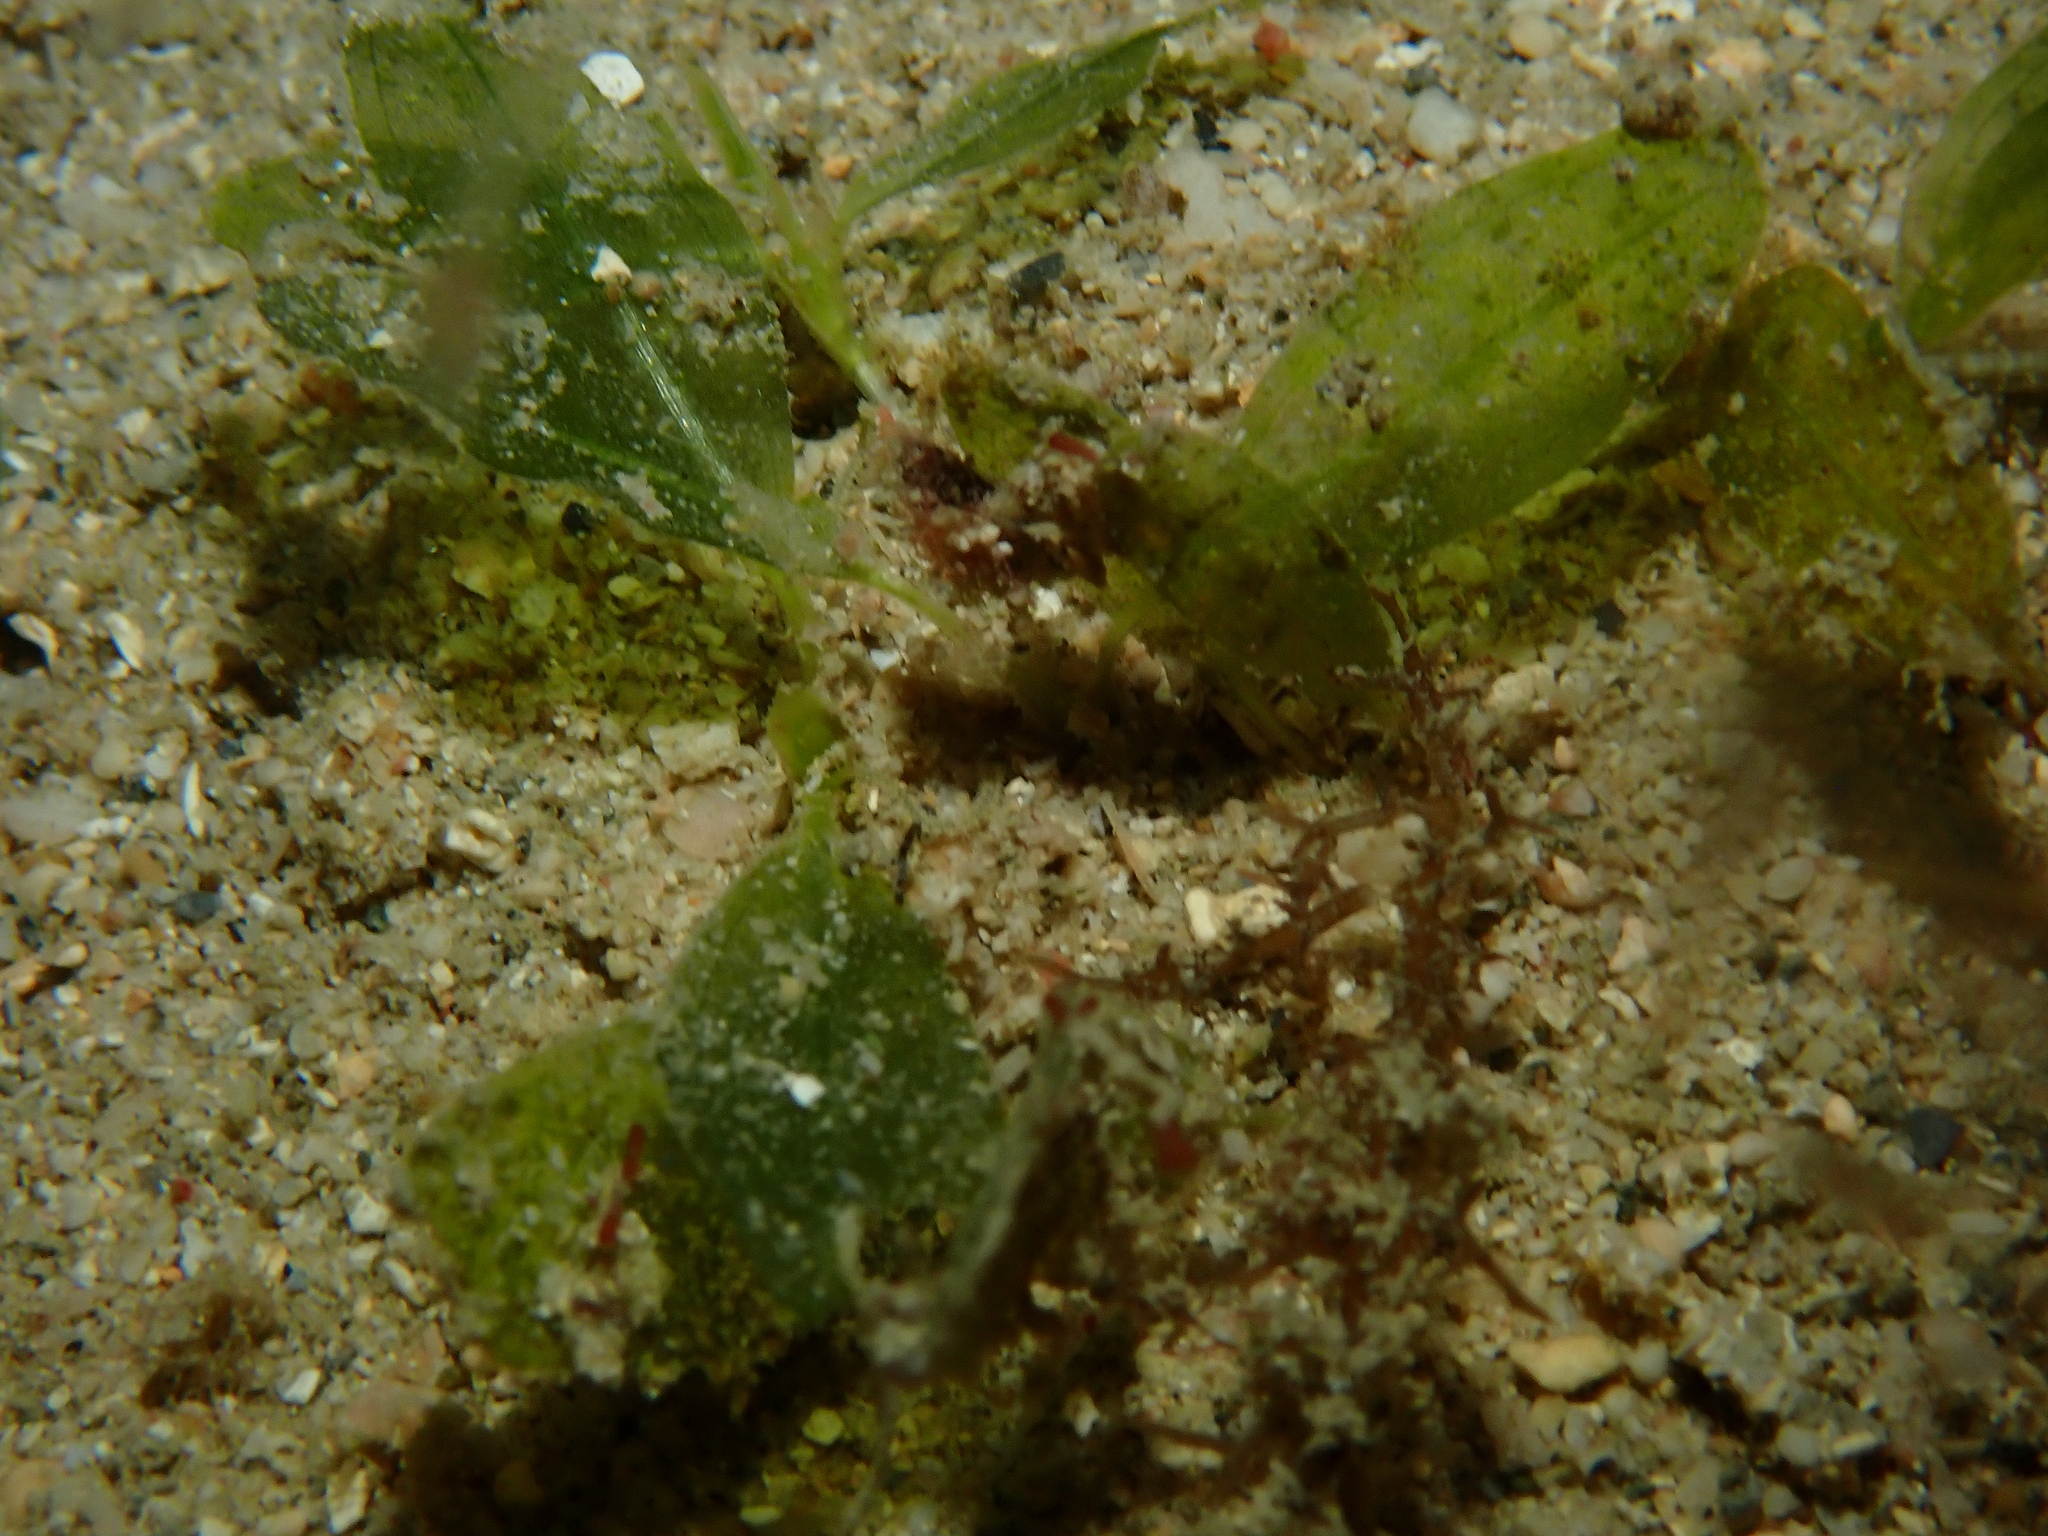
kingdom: Plantae
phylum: Tracheophyta
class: Liliopsida
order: Alismatales
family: Hydrocharitaceae
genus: Halophila
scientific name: Halophila decipiens
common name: Paddle grass
